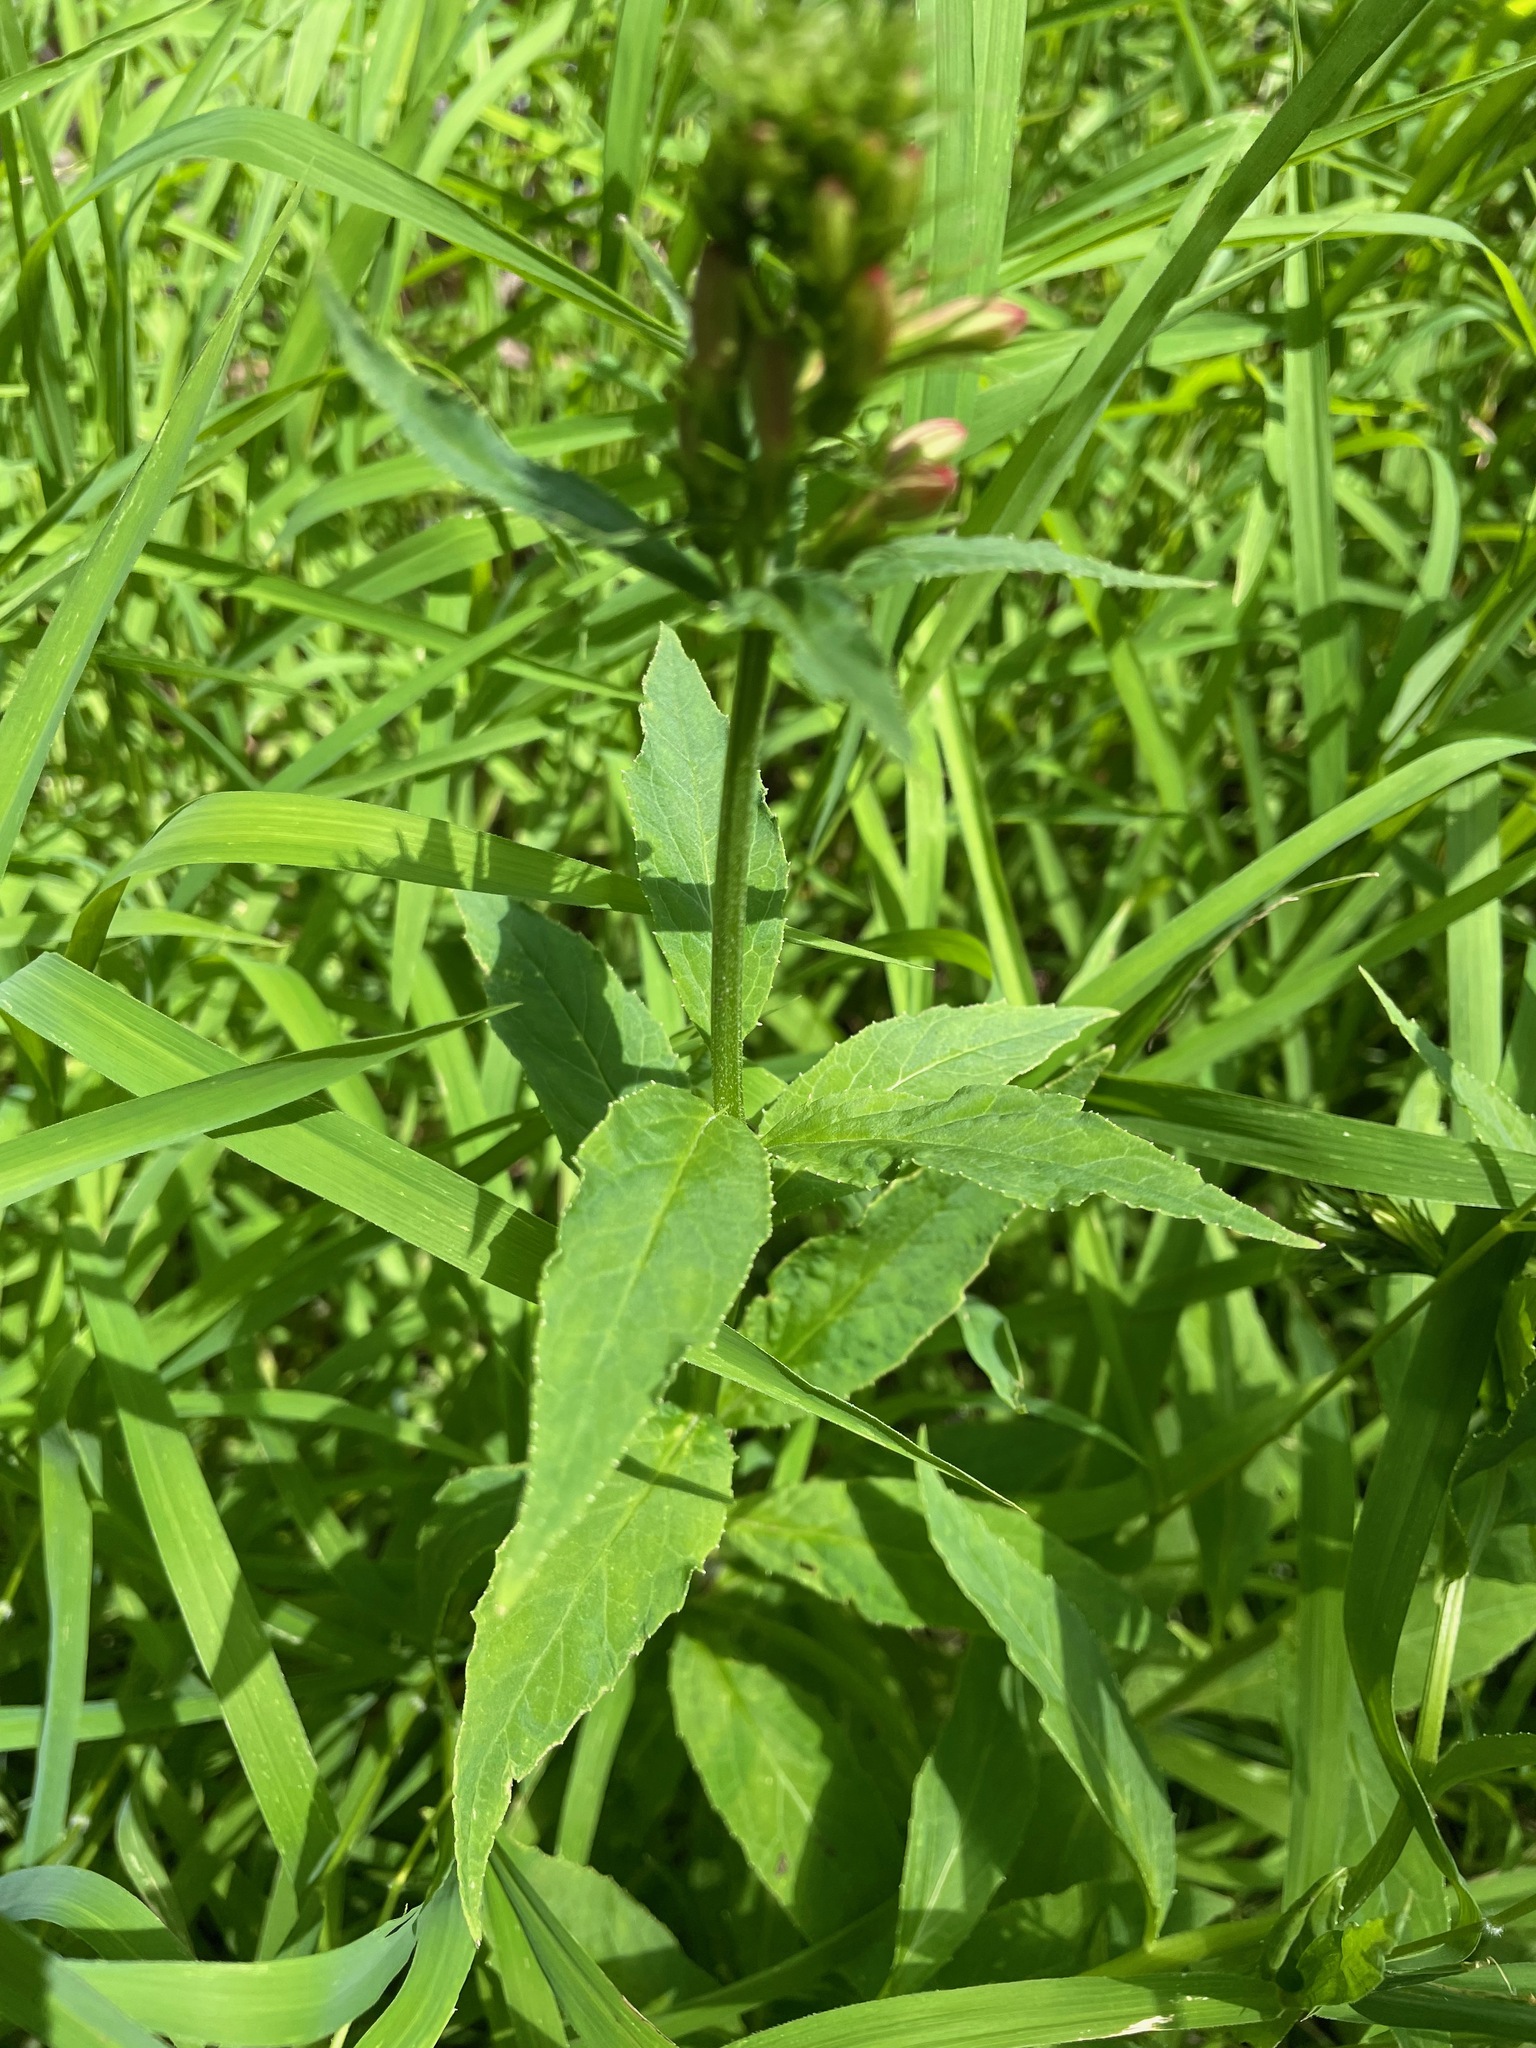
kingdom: Plantae
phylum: Tracheophyta
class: Magnoliopsida
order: Asterales
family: Campanulaceae
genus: Lobelia
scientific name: Lobelia cardinalis
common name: Cardinal flower
